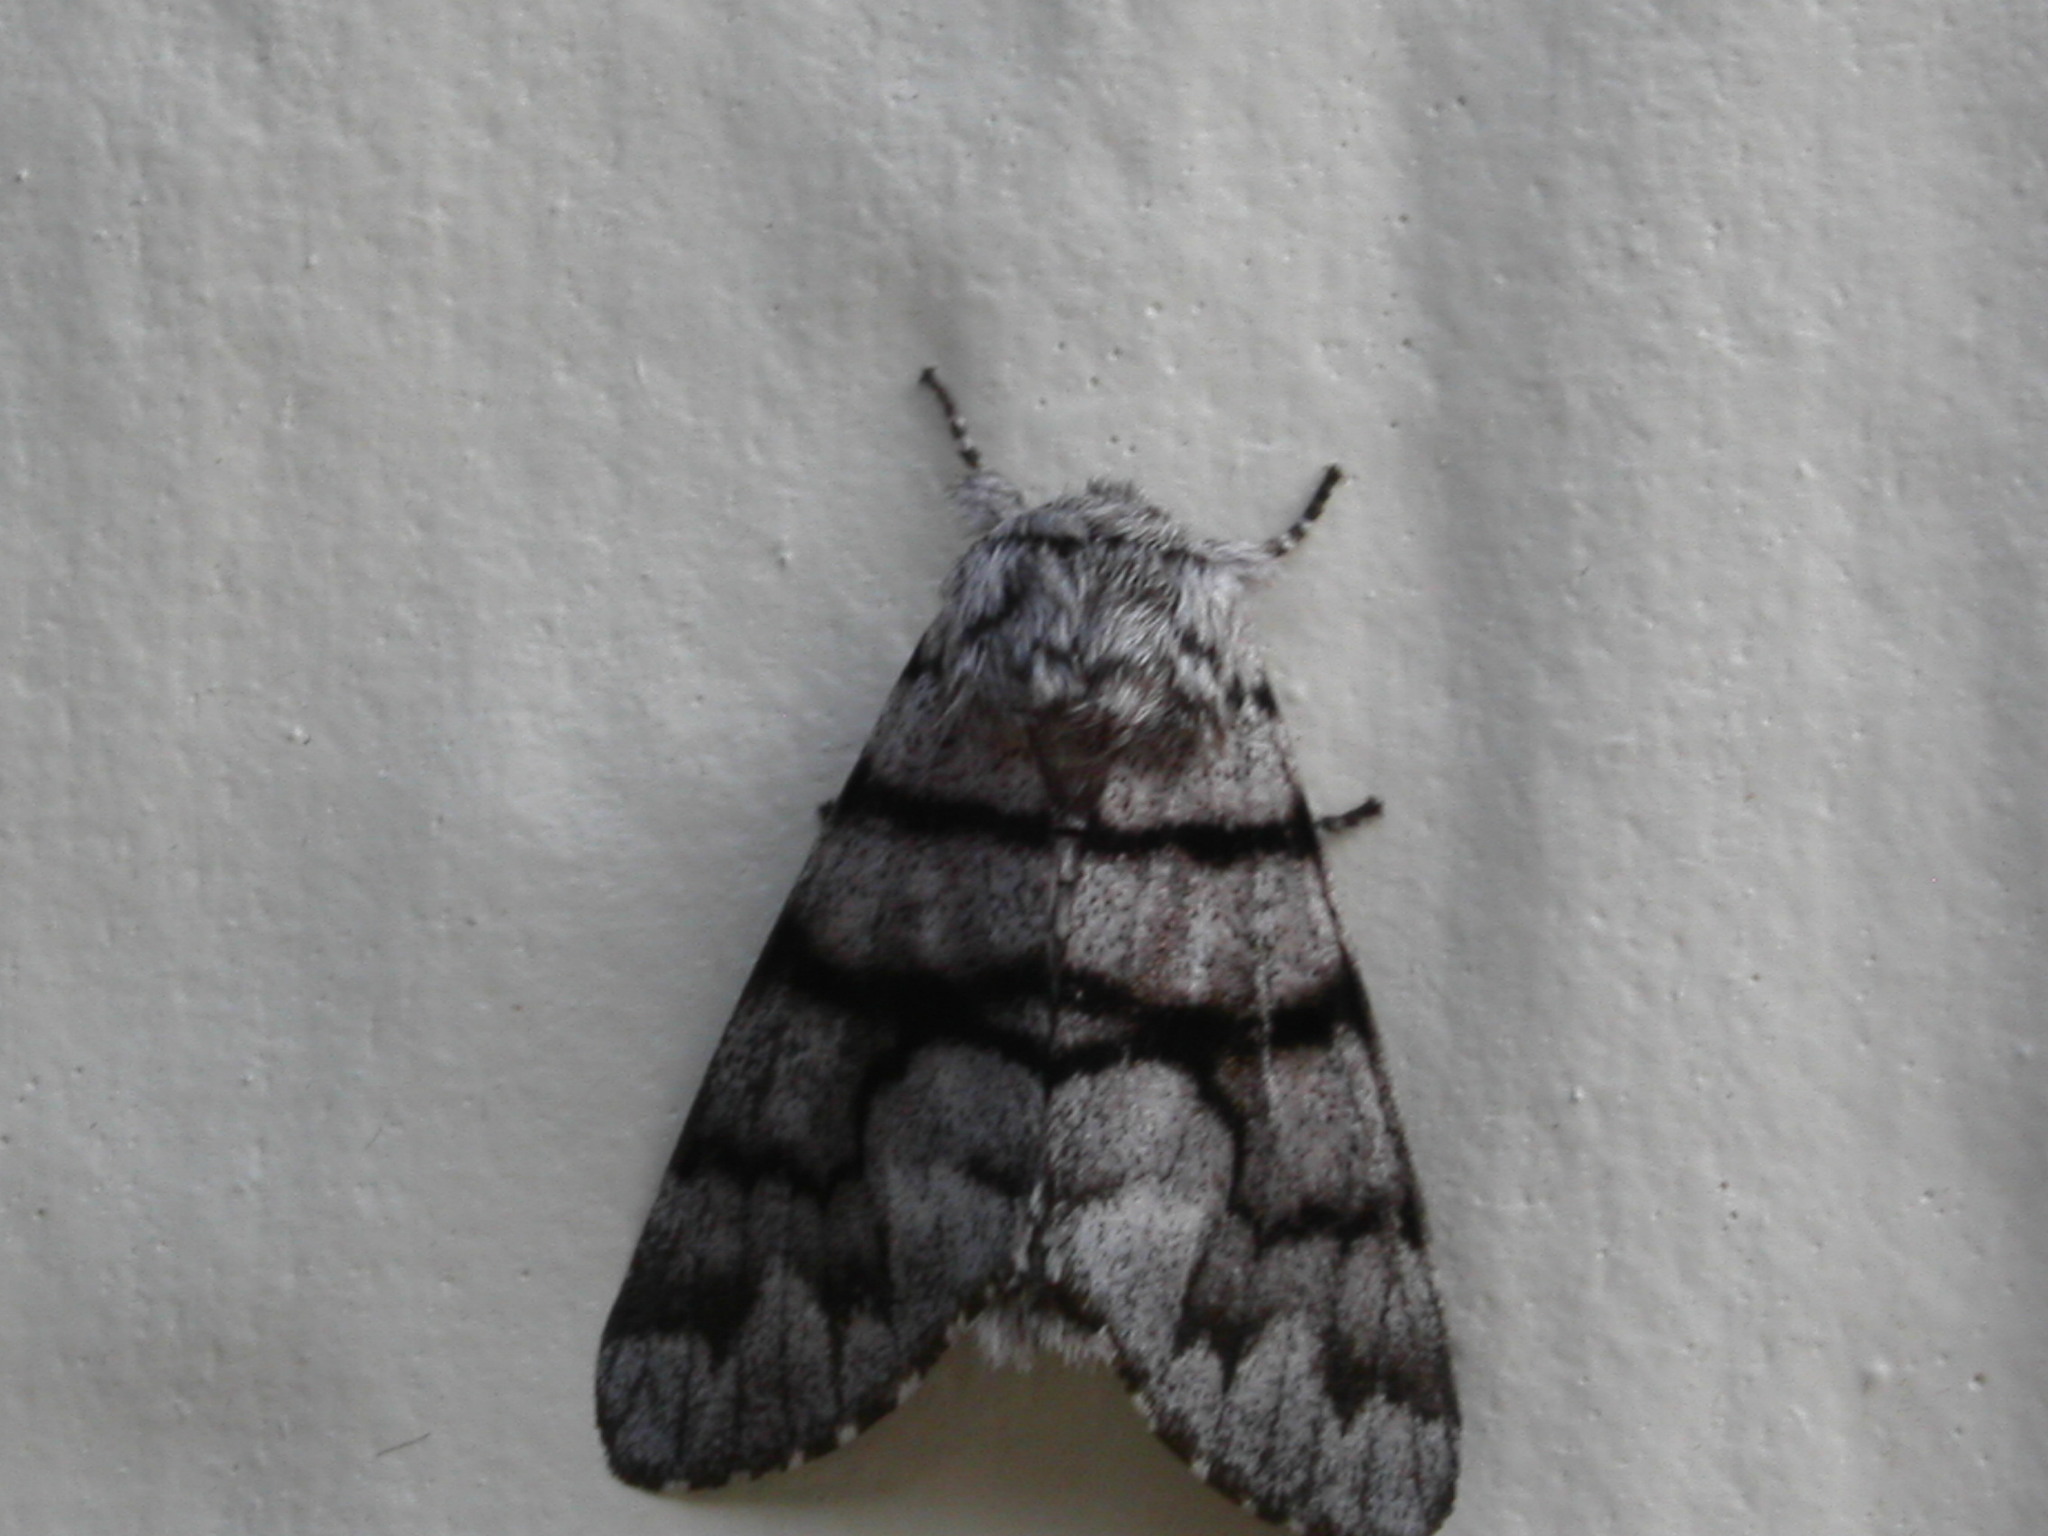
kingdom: Animalia
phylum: Arthropoda
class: Insecta
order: Lepidoptera
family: Noctuidae
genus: Panthea
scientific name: Panthea furcilla
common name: Eastern panthea moth
